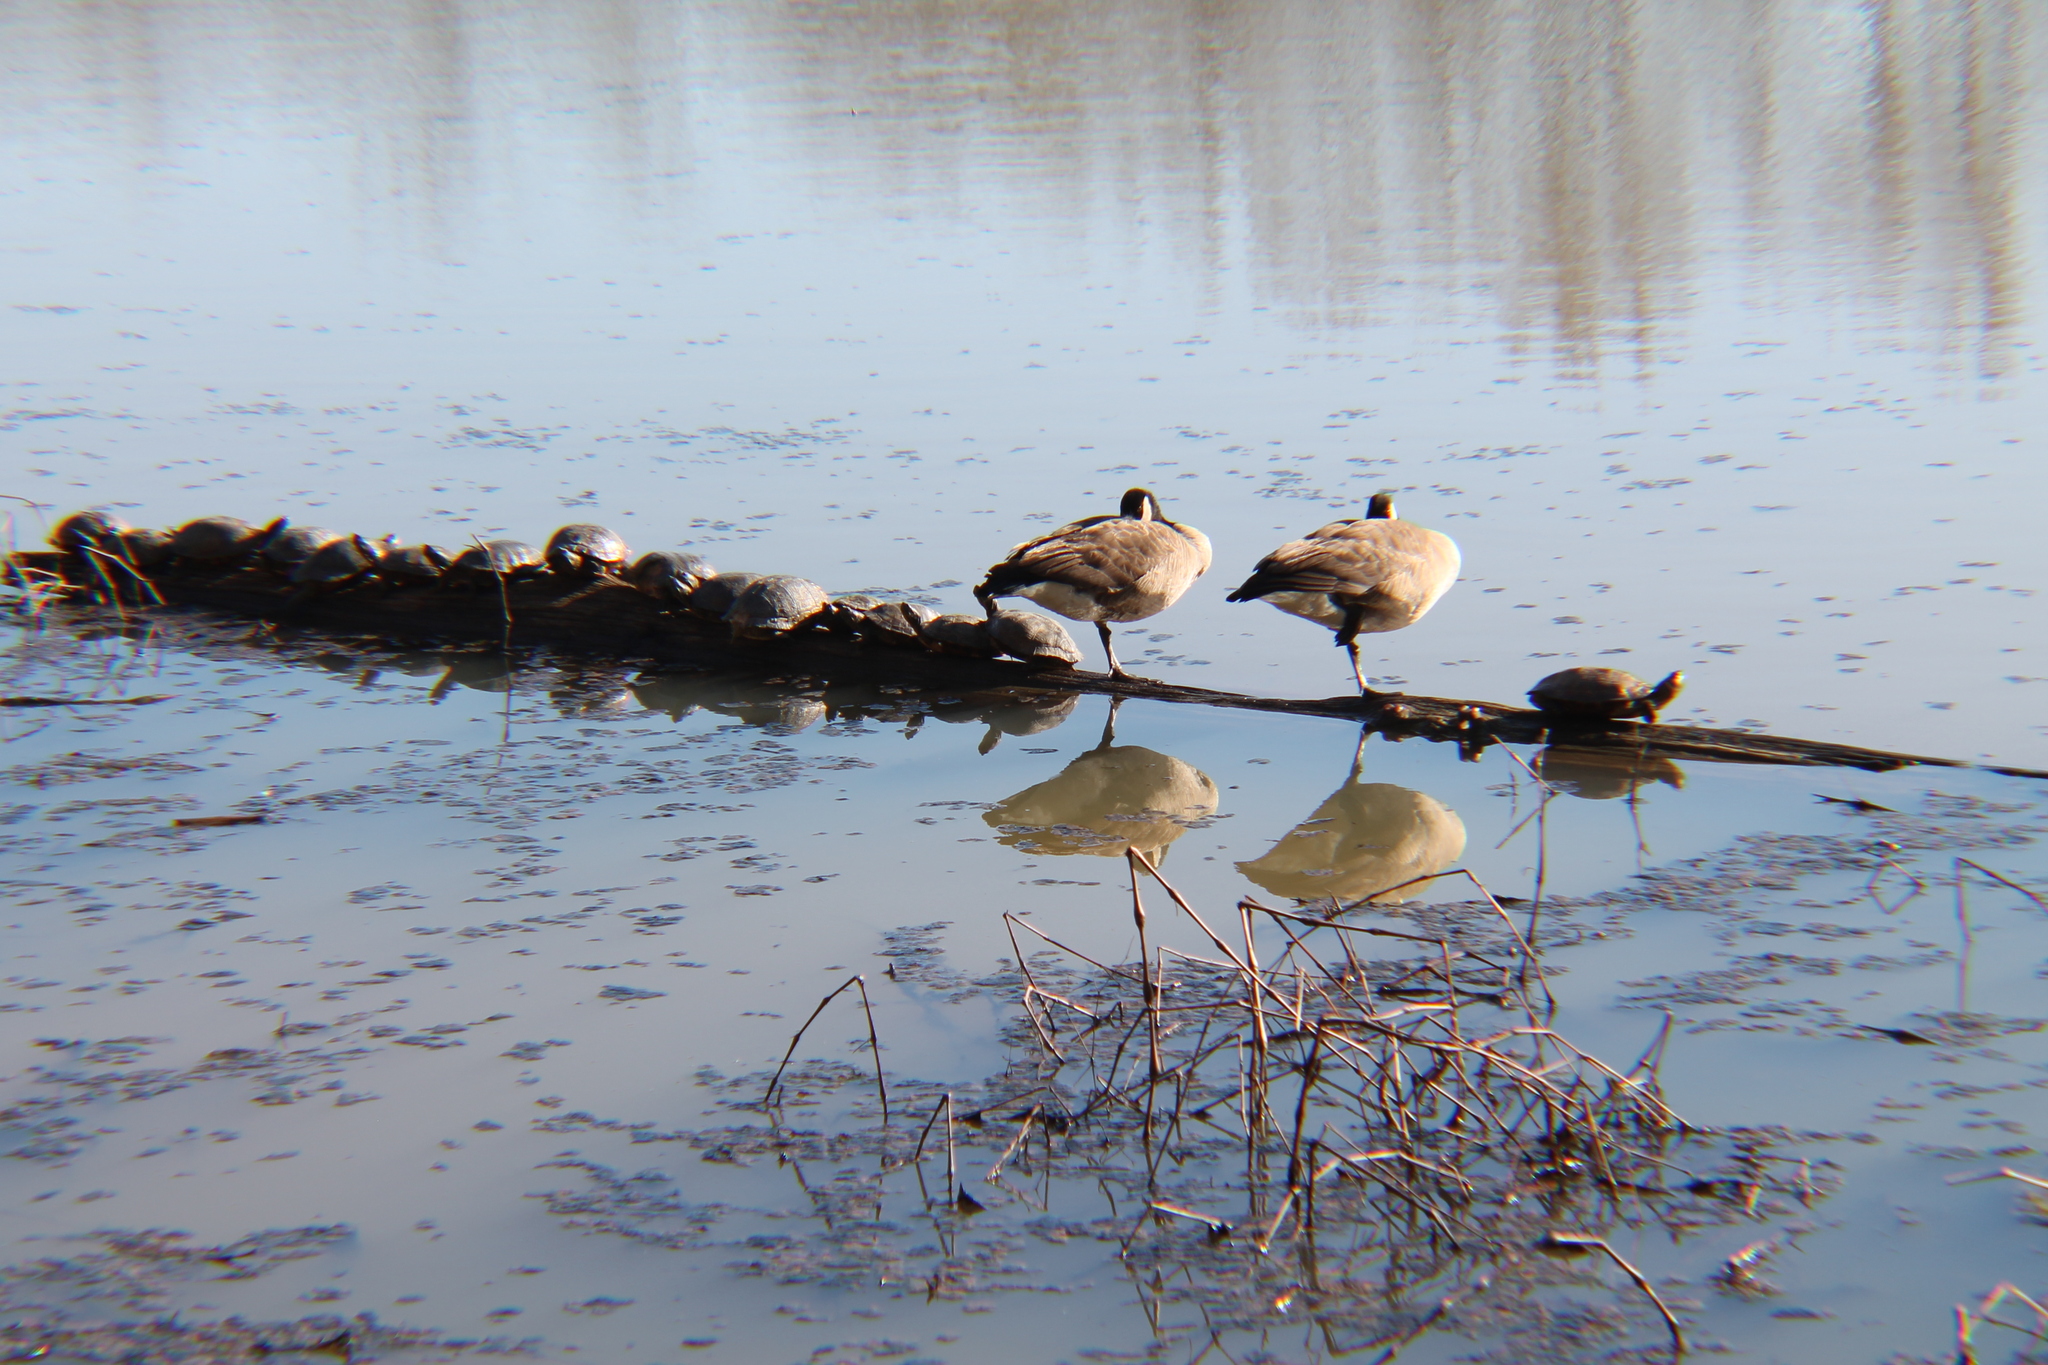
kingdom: Animalia
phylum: Chordata
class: Aves
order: Anseriformes
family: Anatidae
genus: Branta
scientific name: Branta canadensis
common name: Canada goose
